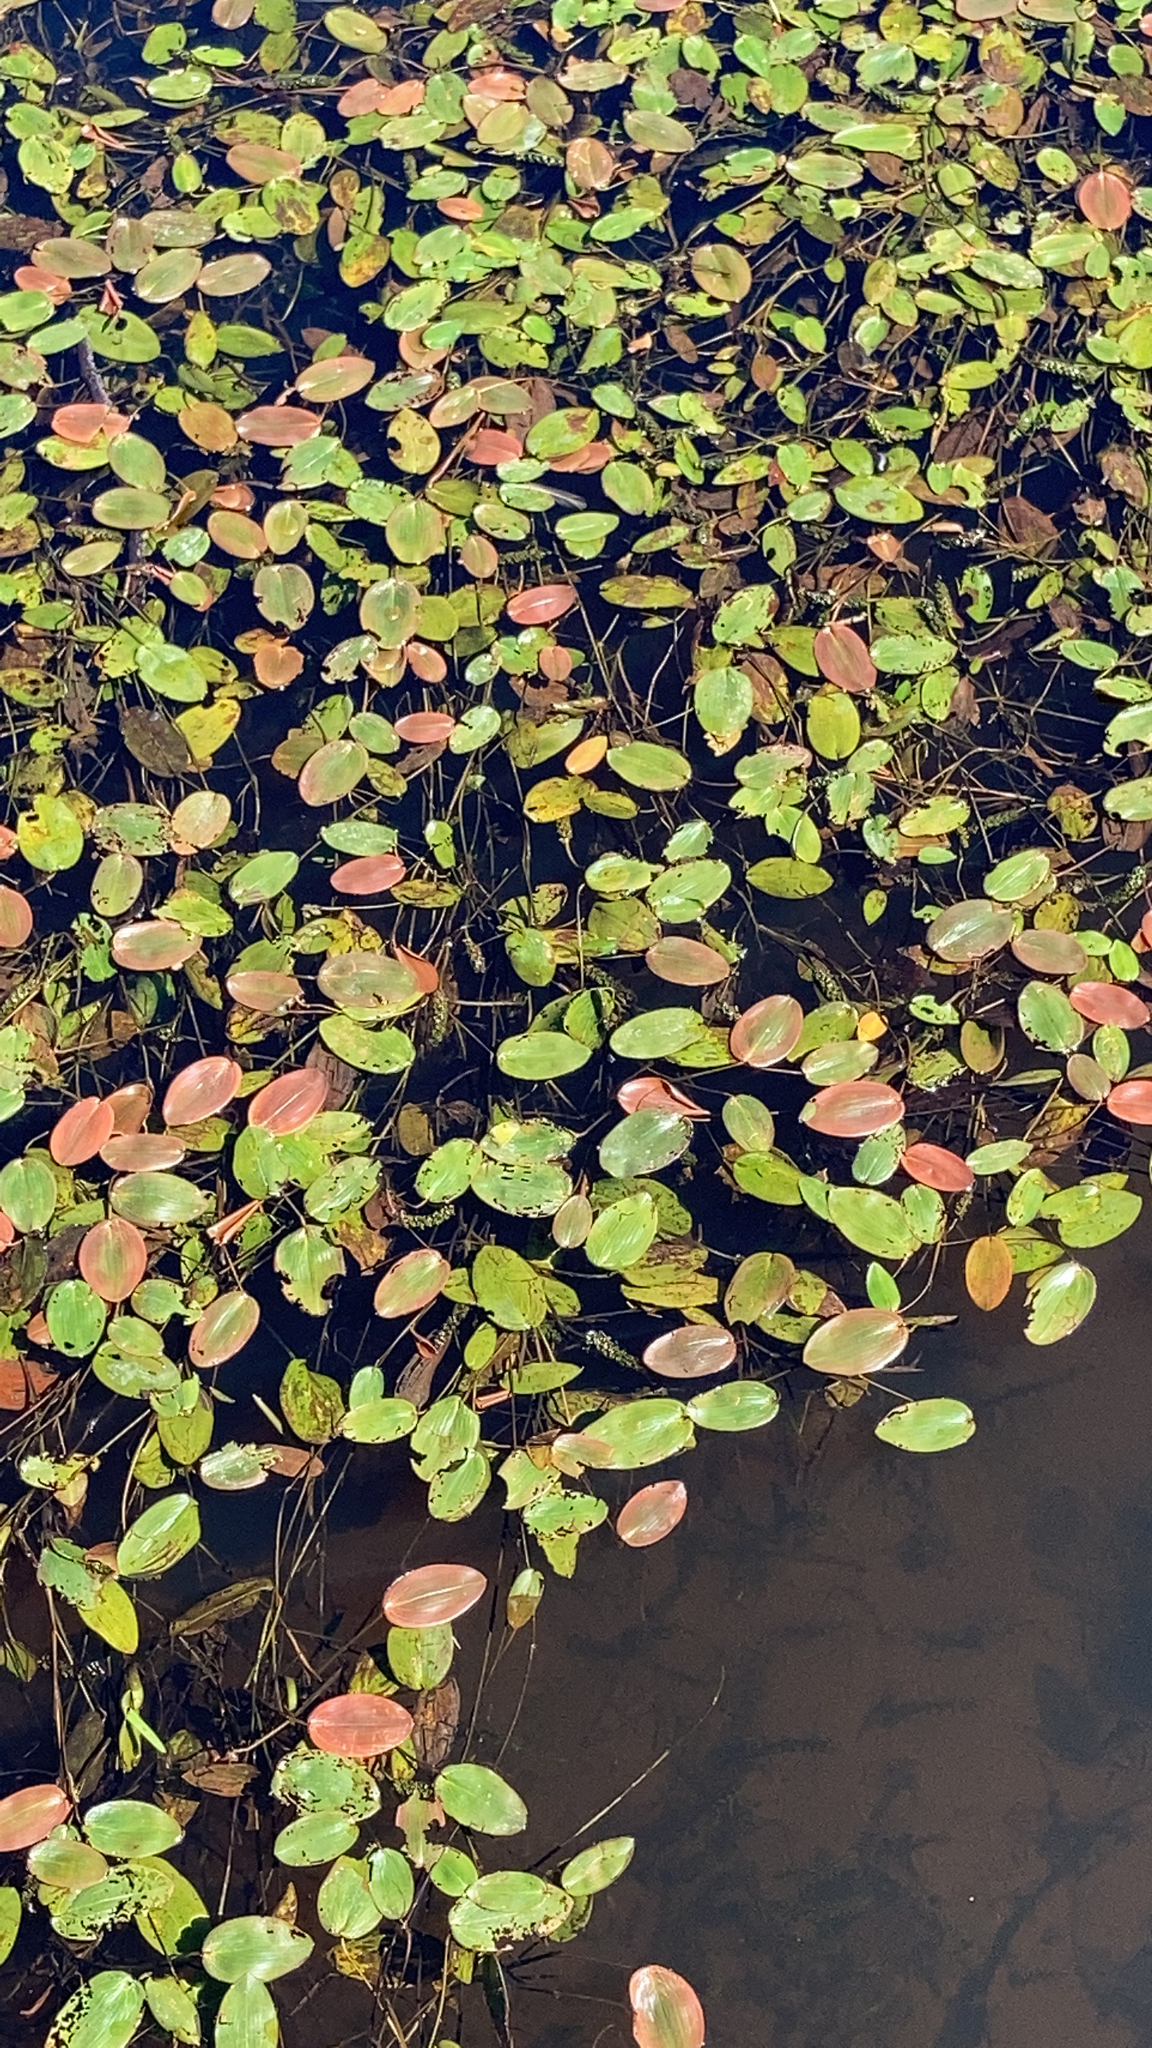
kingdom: Plantae
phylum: Tracheophyta
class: Liliopsida
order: Alismatales
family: Potamogetonaceae
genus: Potamogeton
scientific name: Potamogeton natans
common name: Broad-leaved pondweed
